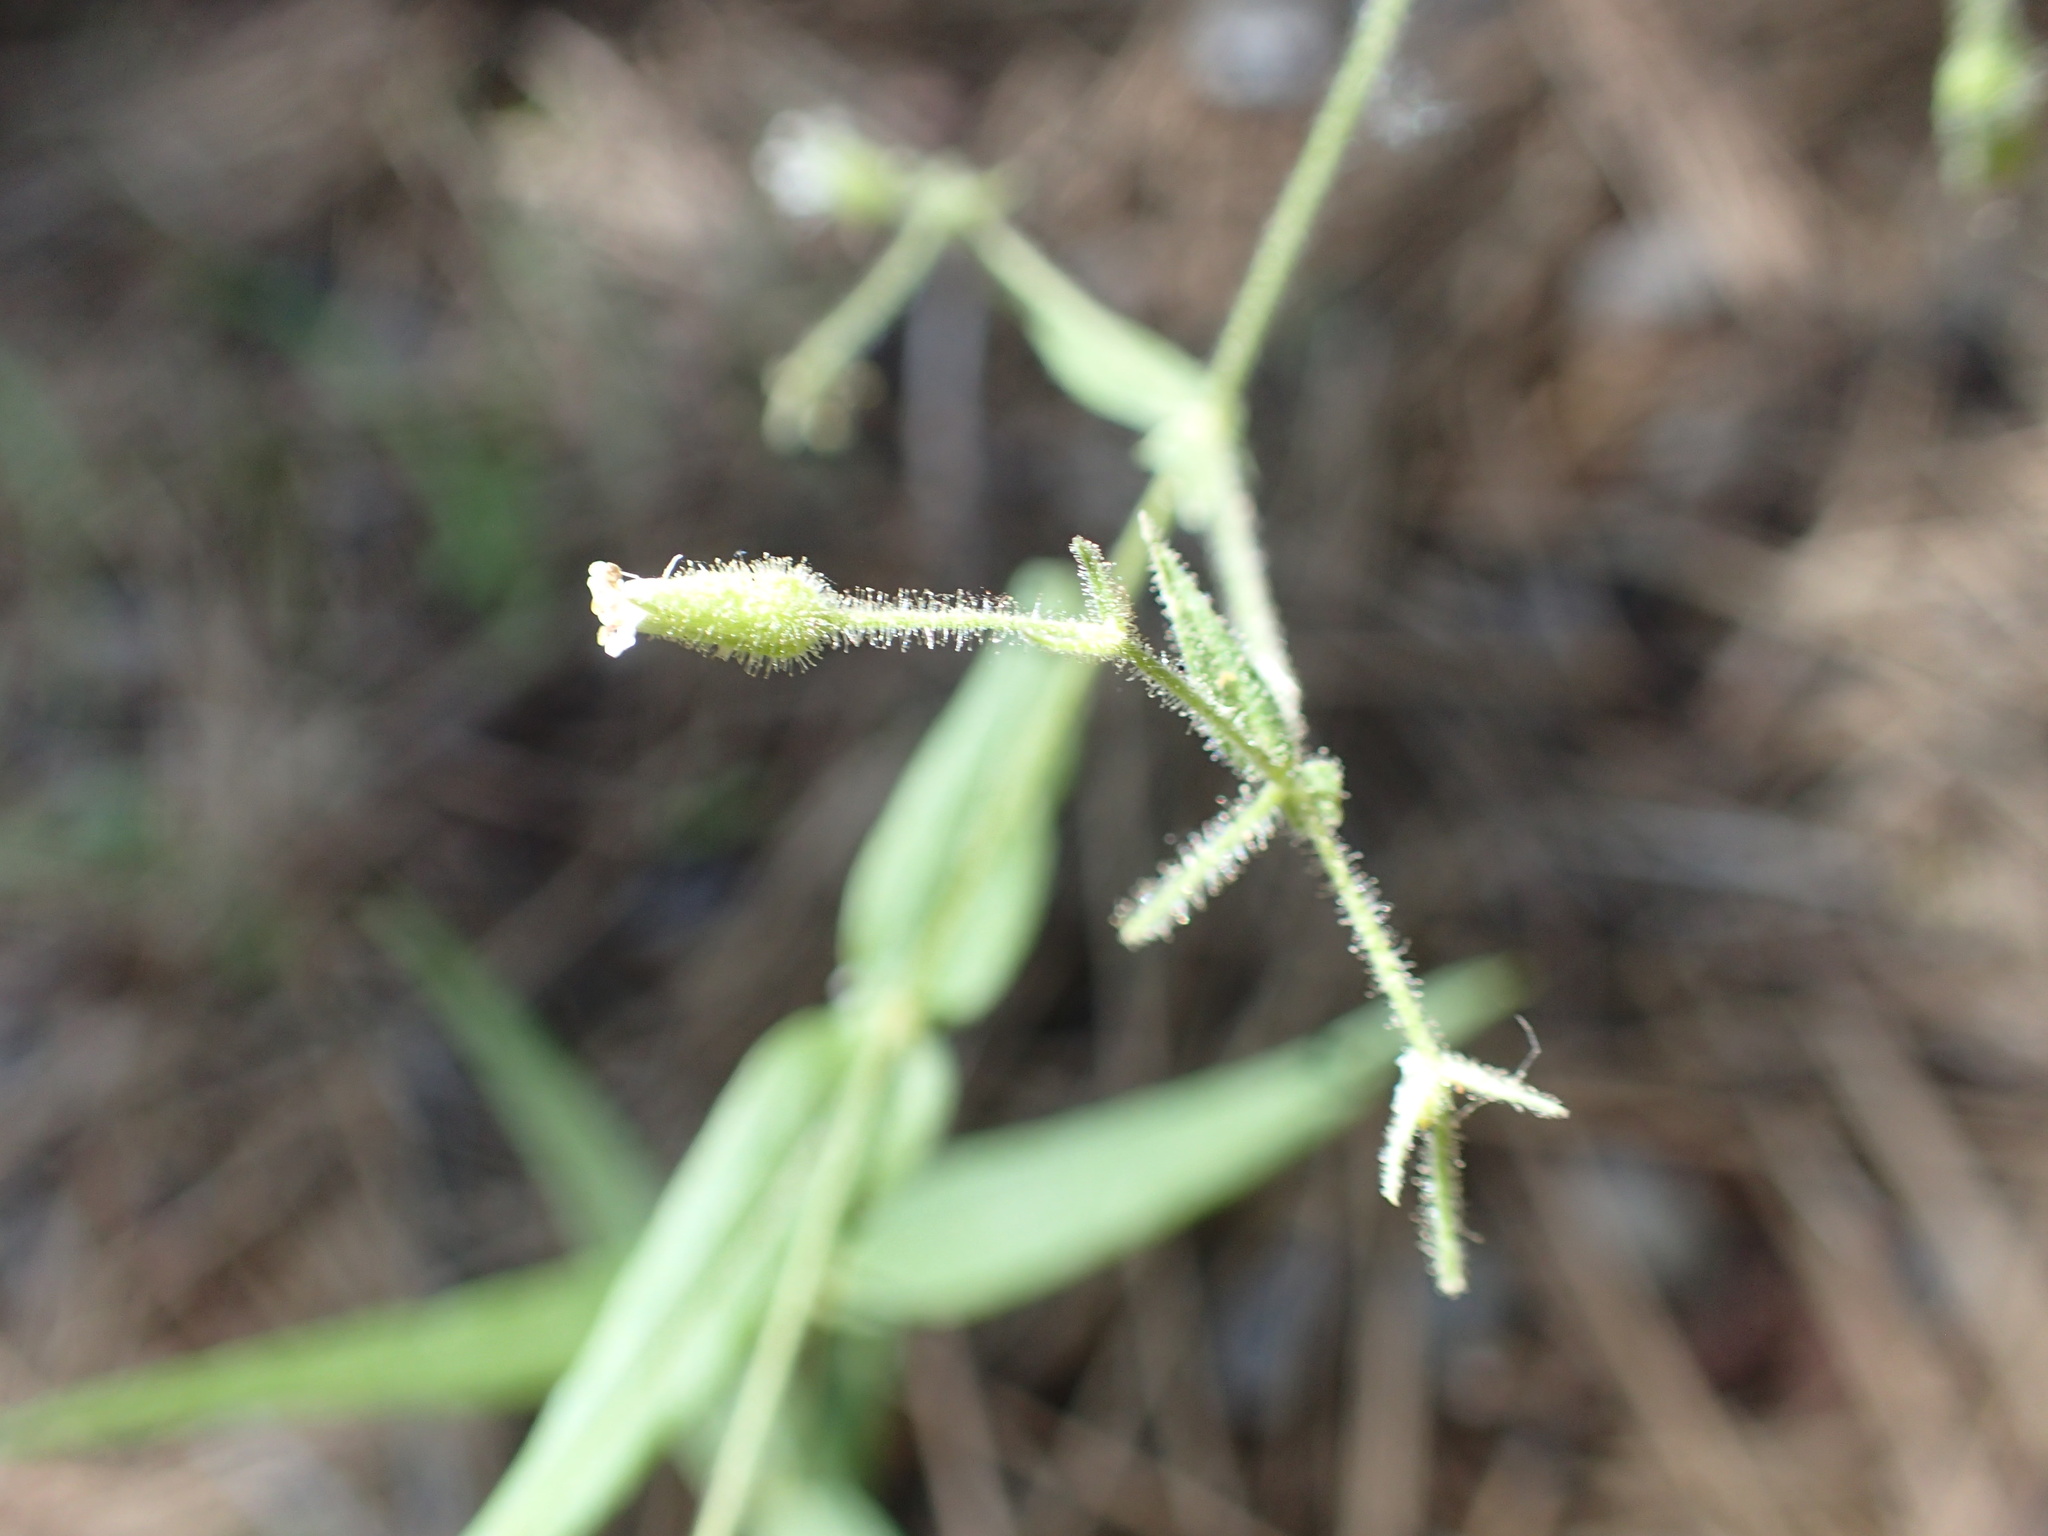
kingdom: Plantae
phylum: Tracheophyta
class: Magnoliopsida
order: Caryophyllales
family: Caryophyllaceae
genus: Schizotechium
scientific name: Schizotechium jamesianum
